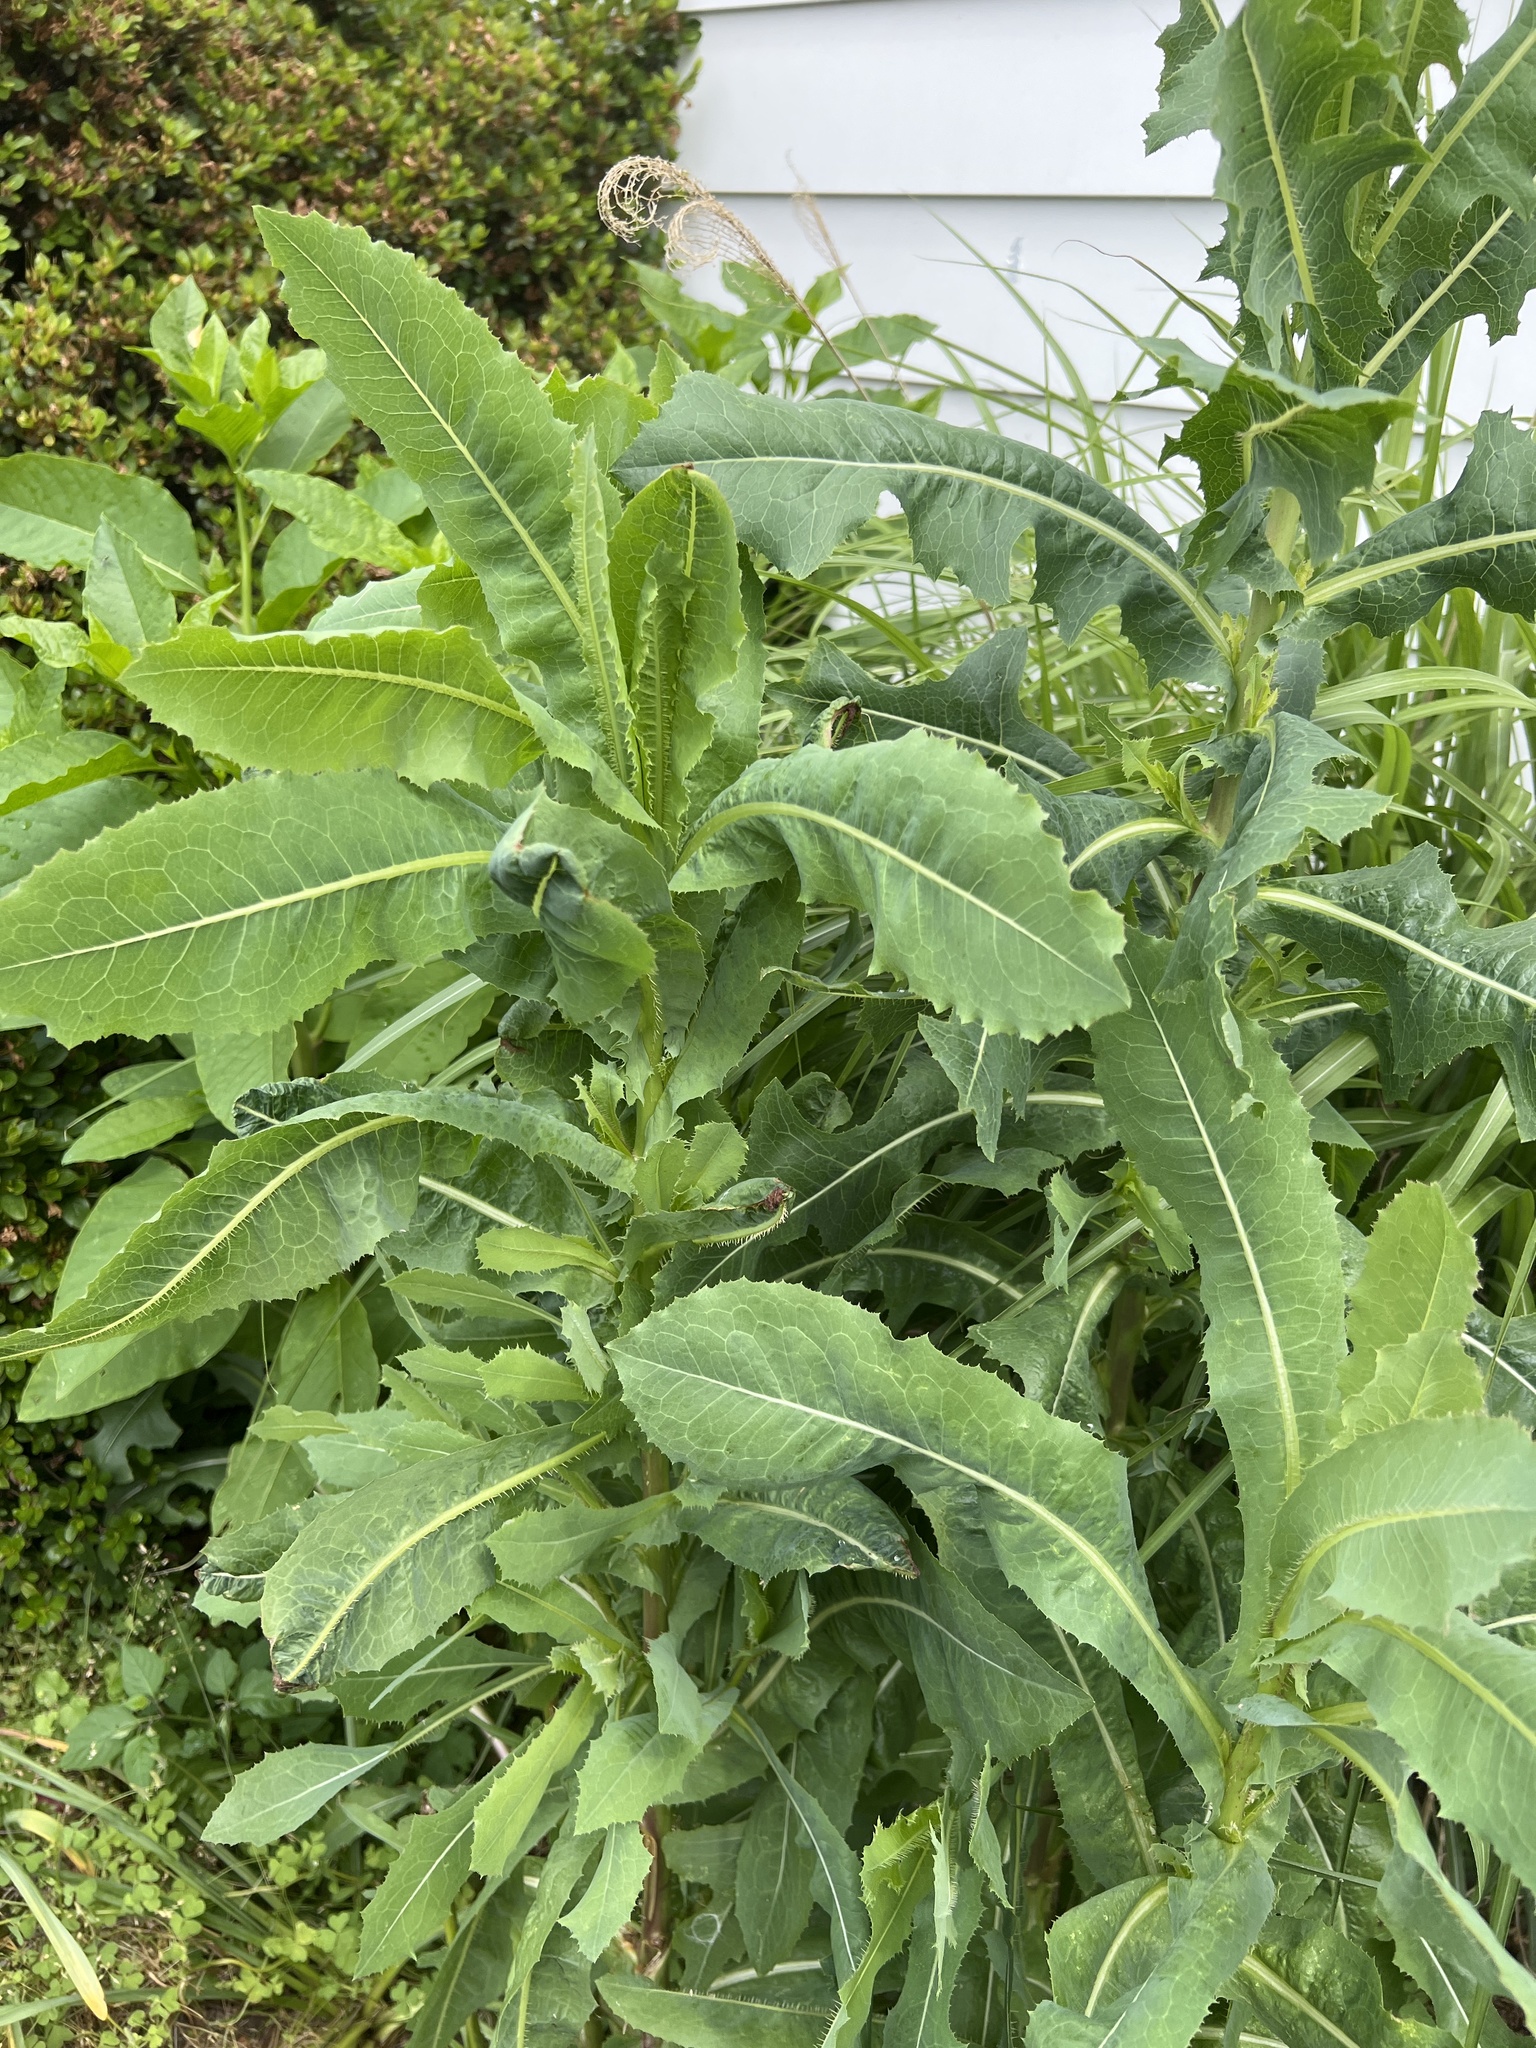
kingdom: Plantae
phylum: Tracheophyta
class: Magnoliopsida
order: Asterales
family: Asteraceae
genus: Lactuca
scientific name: Lactuca serriola
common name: Prickly lettuce
